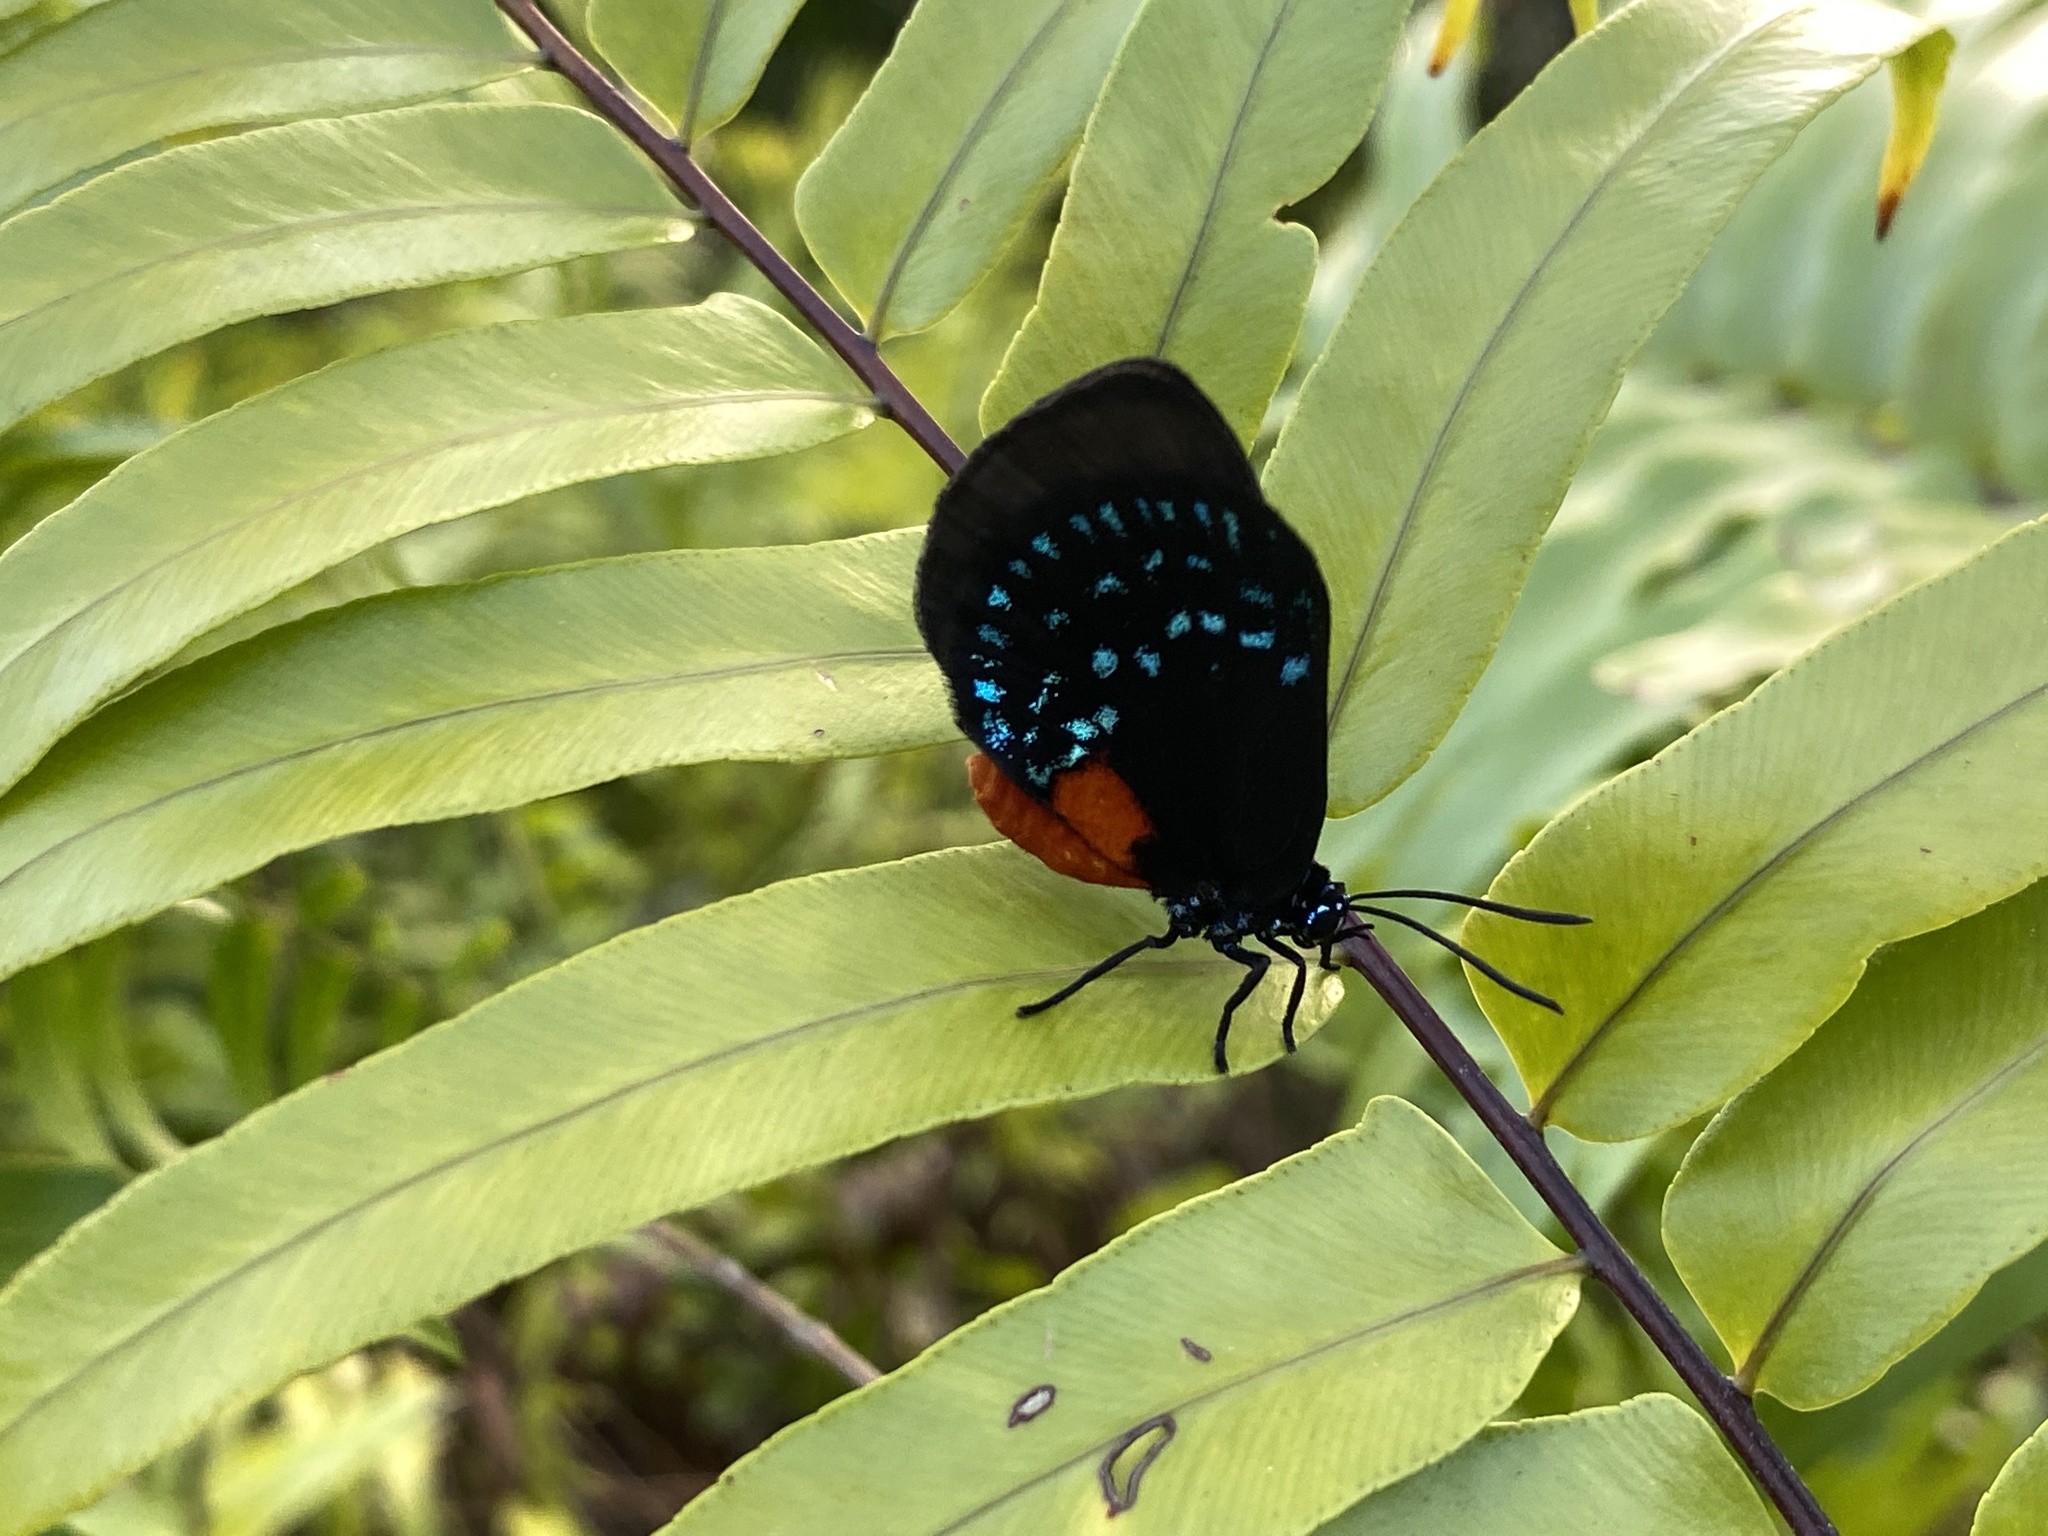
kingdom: Animalia
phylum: Arthropoda
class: Insecta
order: Lepidoptera
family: Lycaenidae
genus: Eumaeus
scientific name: Eumaeus atala
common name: Atala
